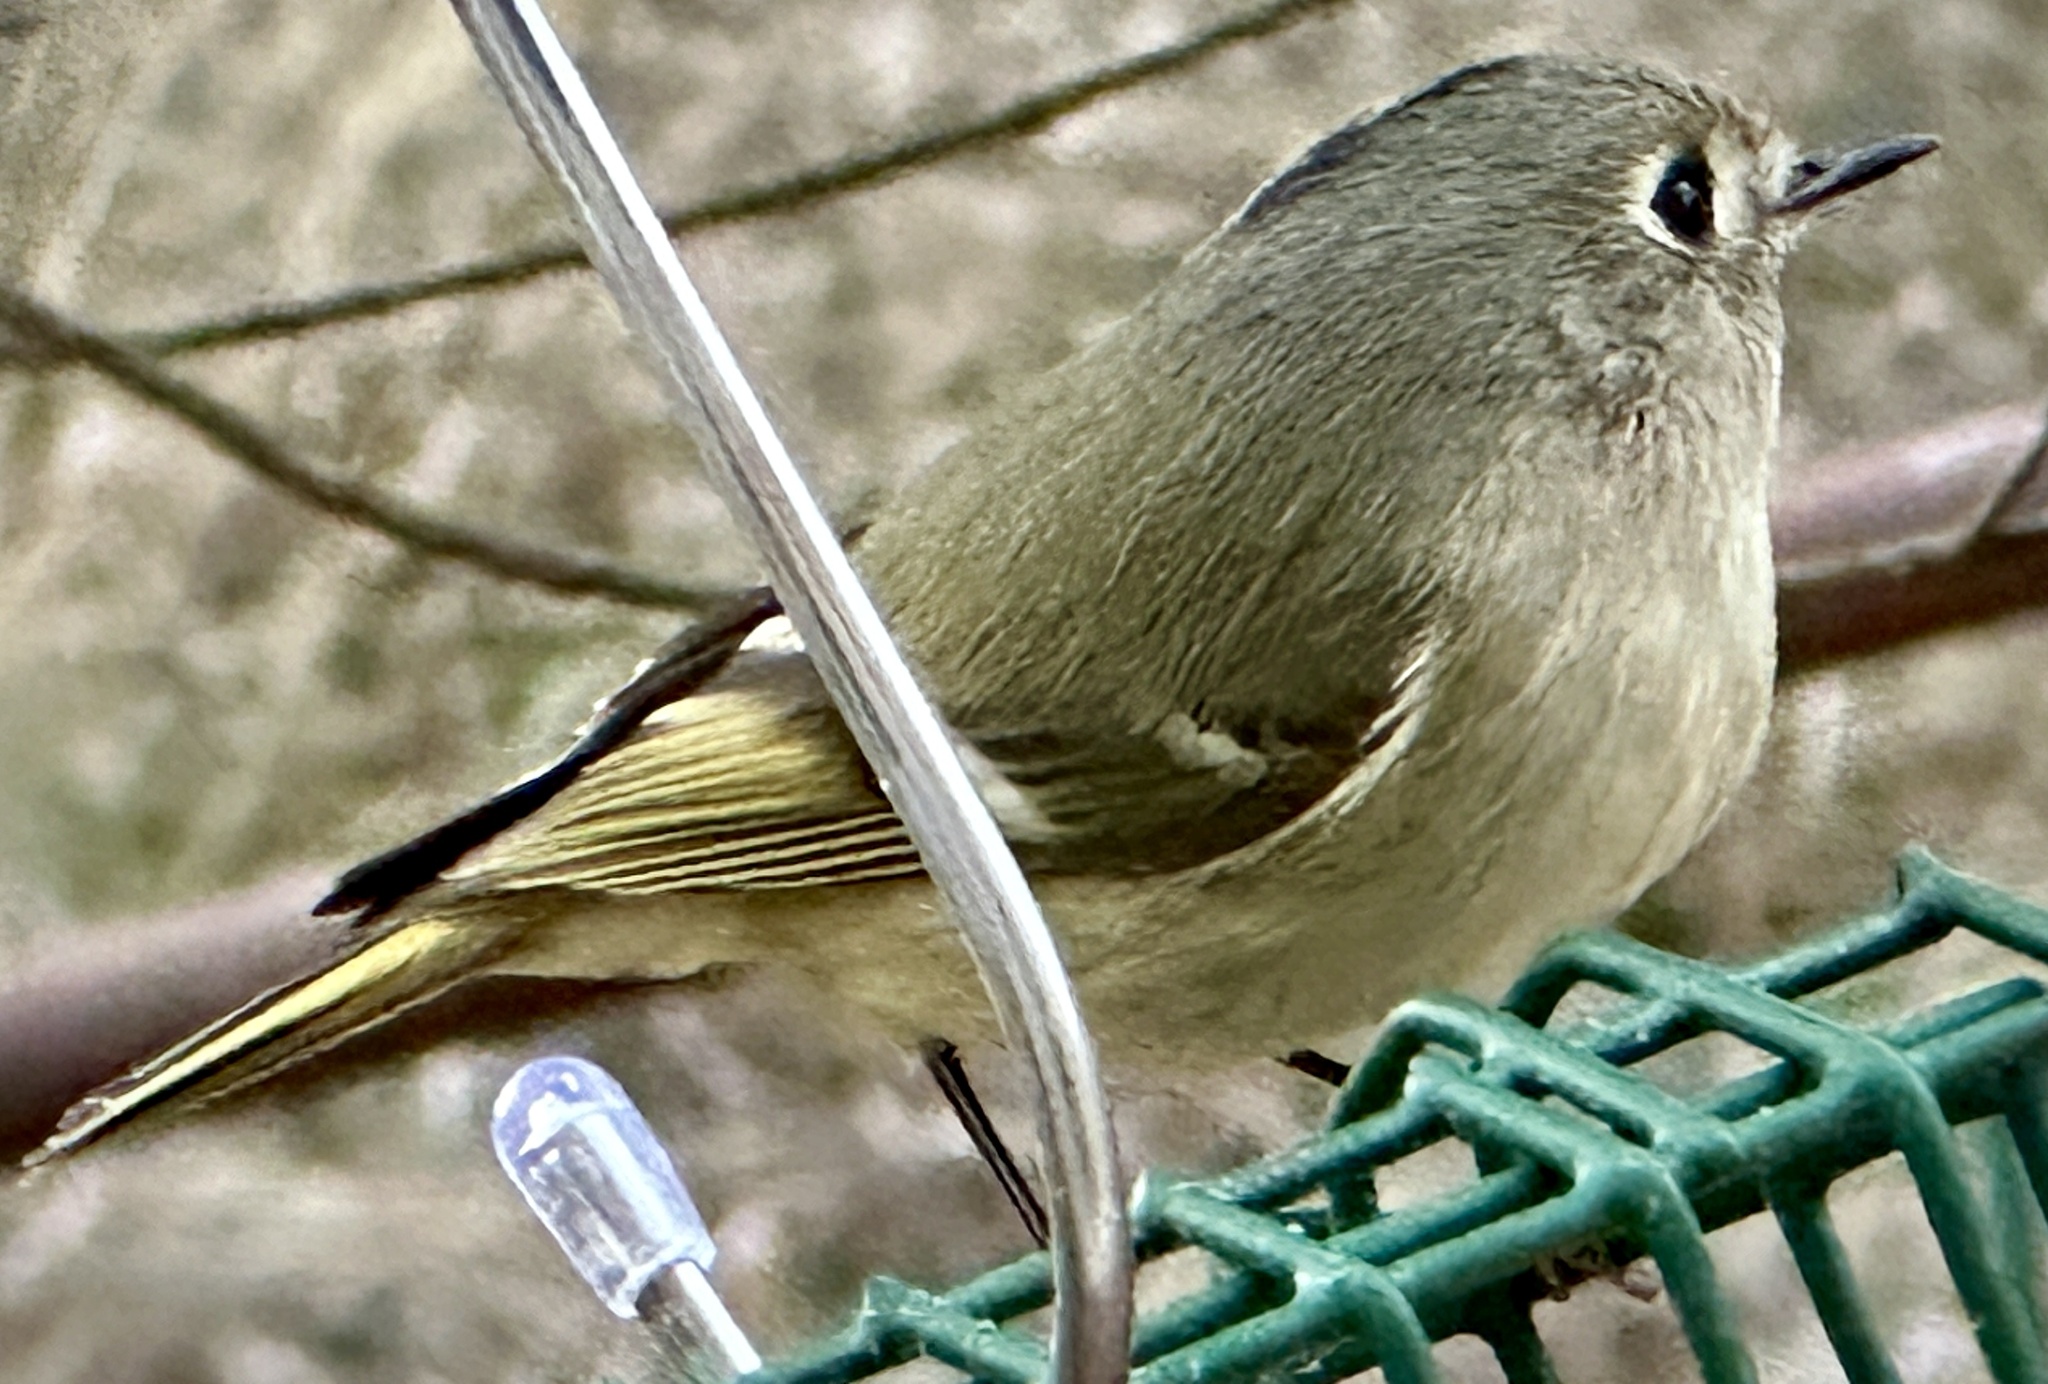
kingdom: Animalia
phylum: Chordata
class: Aves
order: Passeriformes
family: Regulidae
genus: Regulus
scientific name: Regulus calendula
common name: Ruby-crowned kinglet
